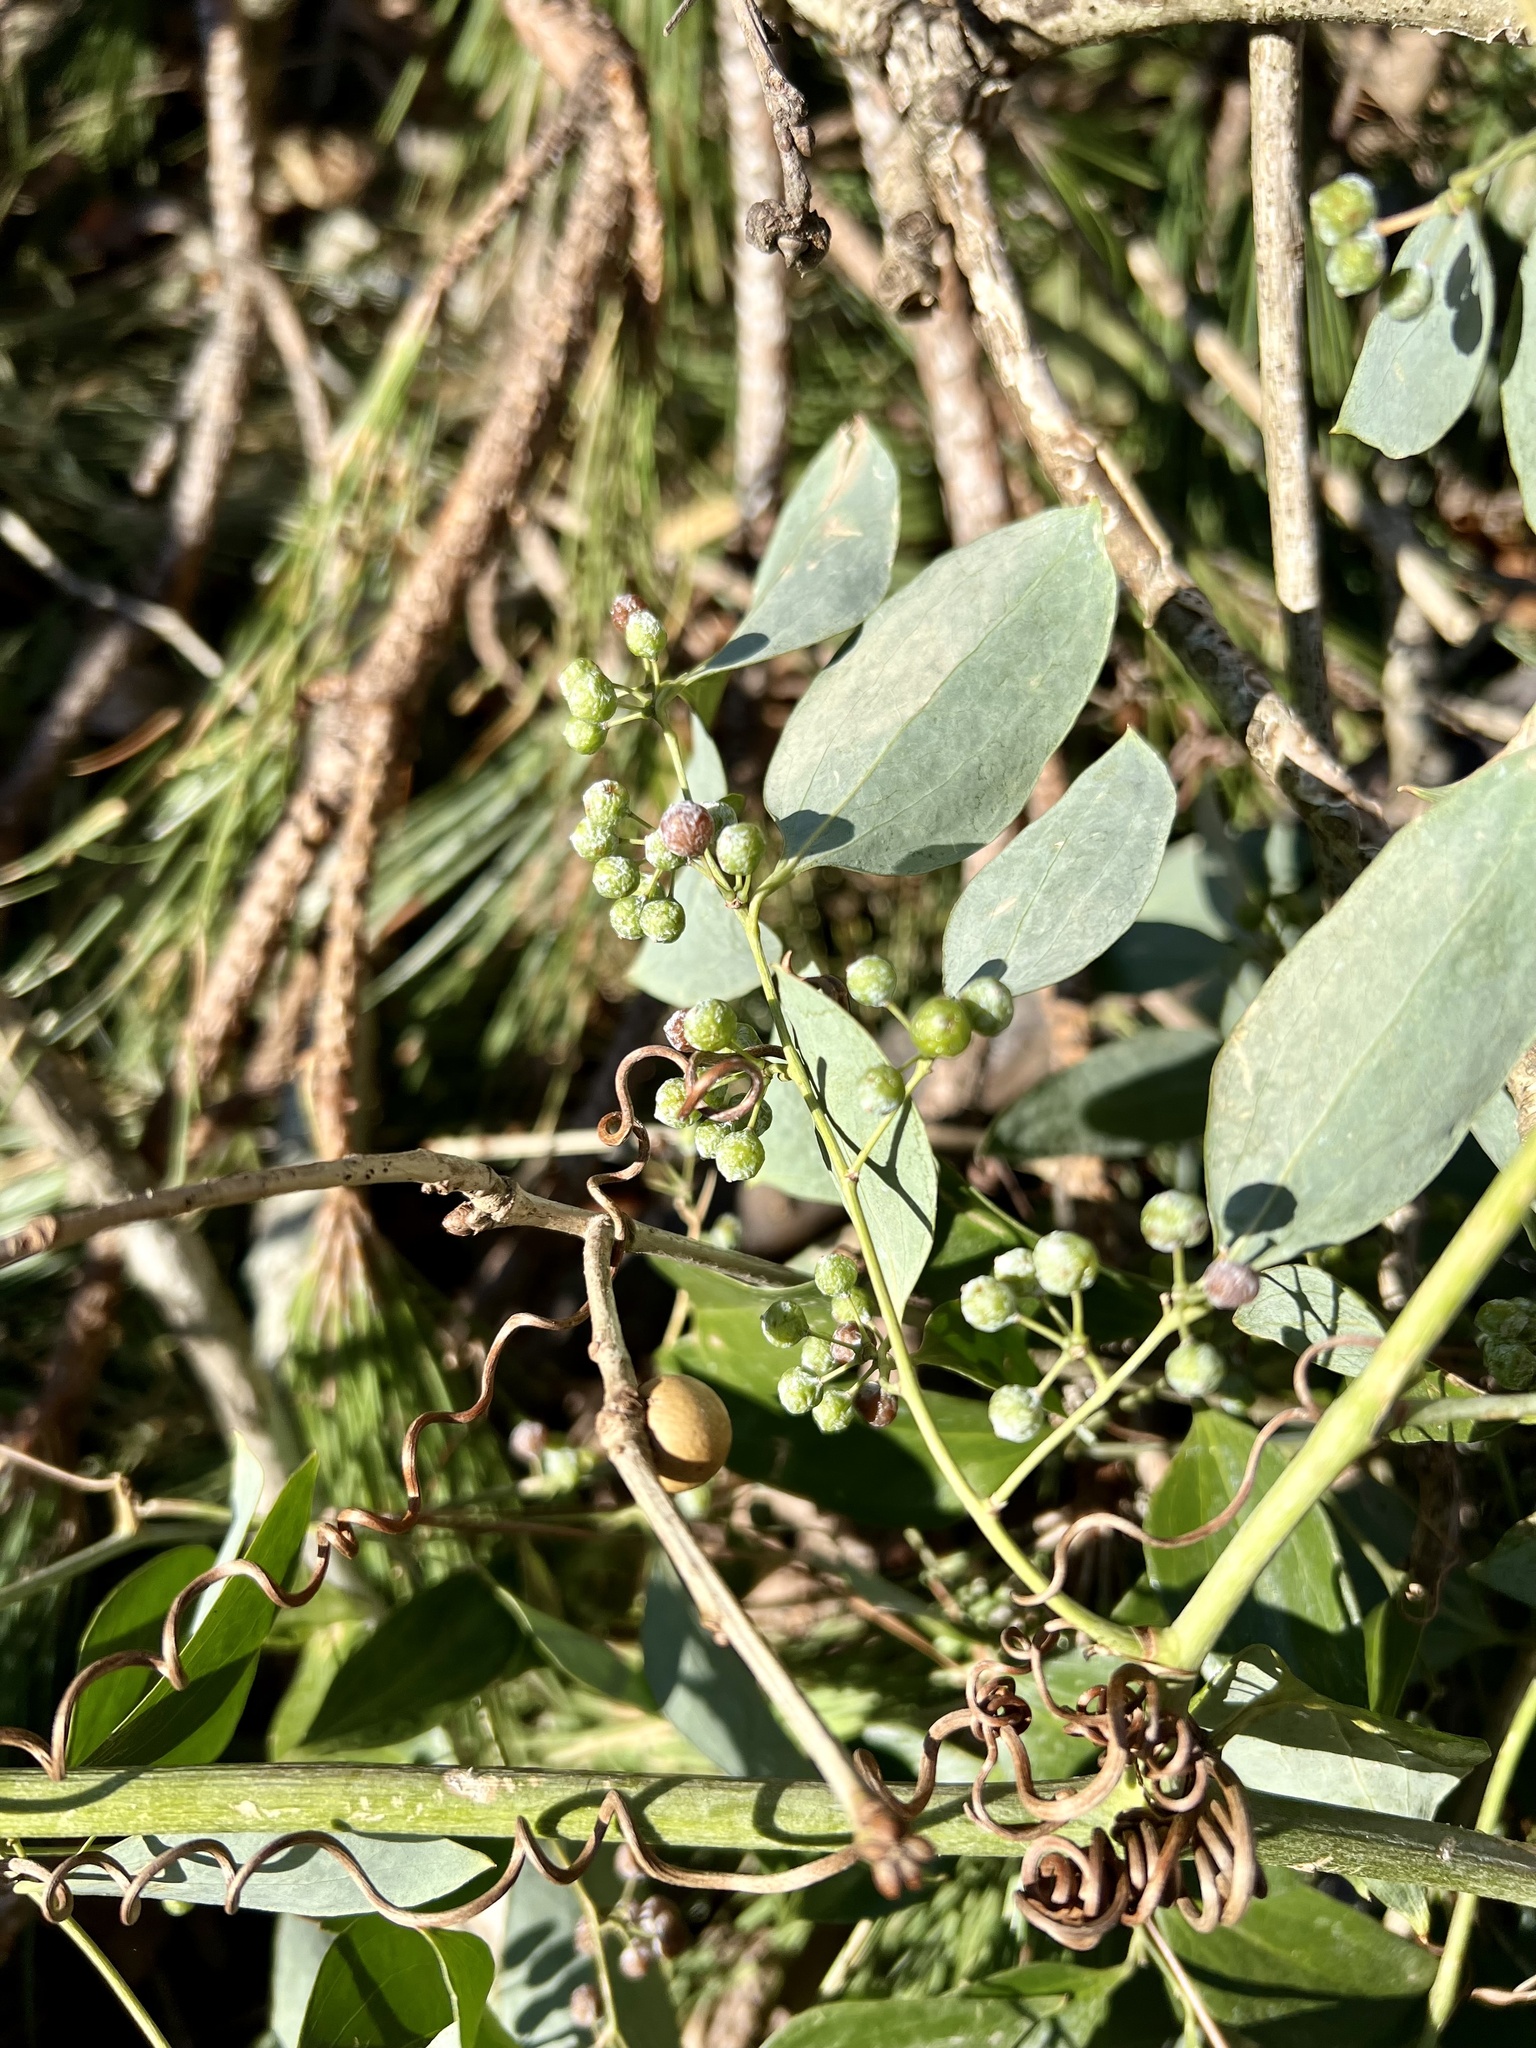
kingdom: Plantae
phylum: Tracheophyta
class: Liliopsida
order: Liliales
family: Smilacaceae
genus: Smilax
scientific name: Smilax maritima
